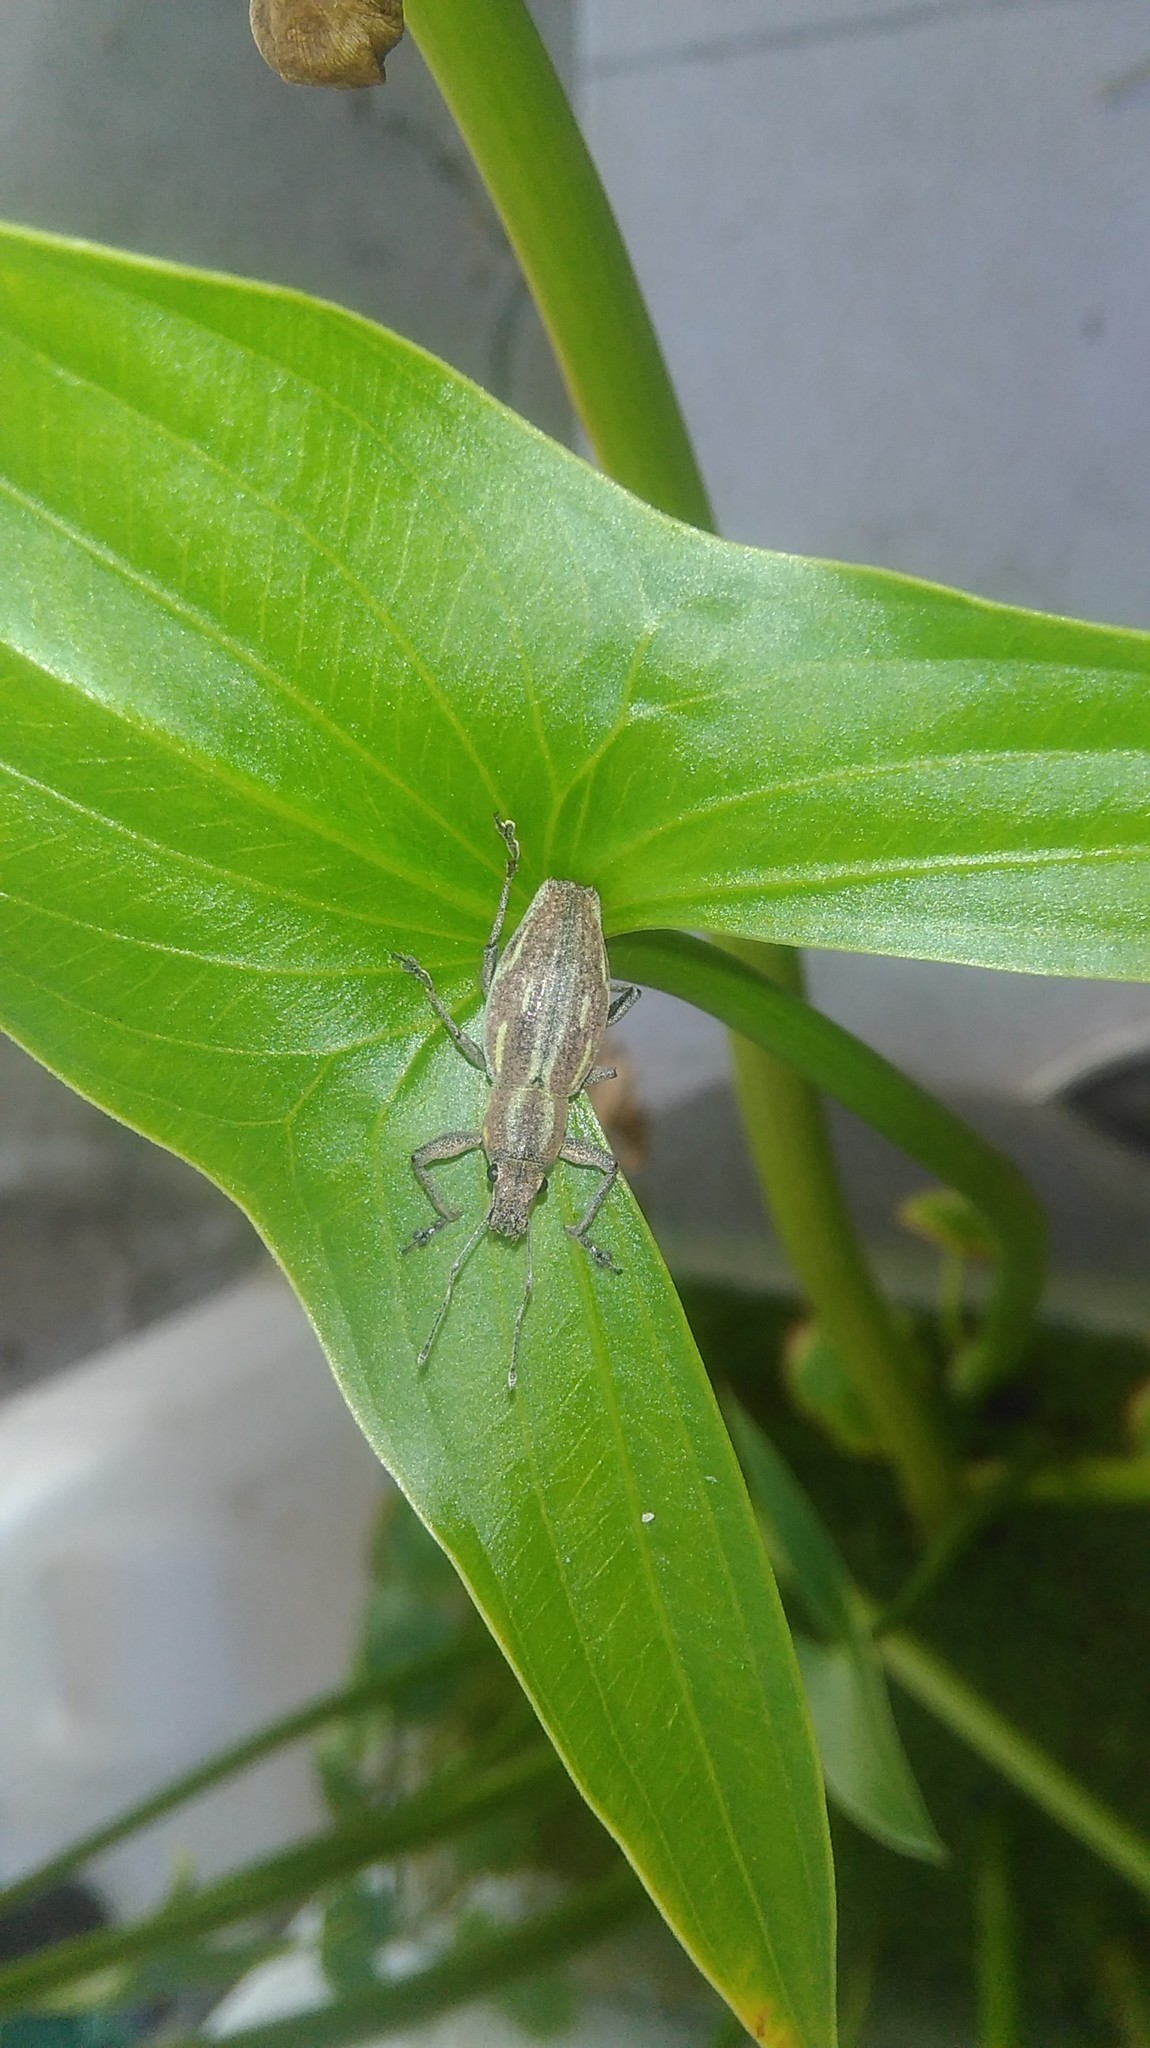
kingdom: Animalia
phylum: Arthropoda
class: Insecta
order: Coleoptera
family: Curculionidae
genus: Naupactus
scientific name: Naupactus xanthographus
